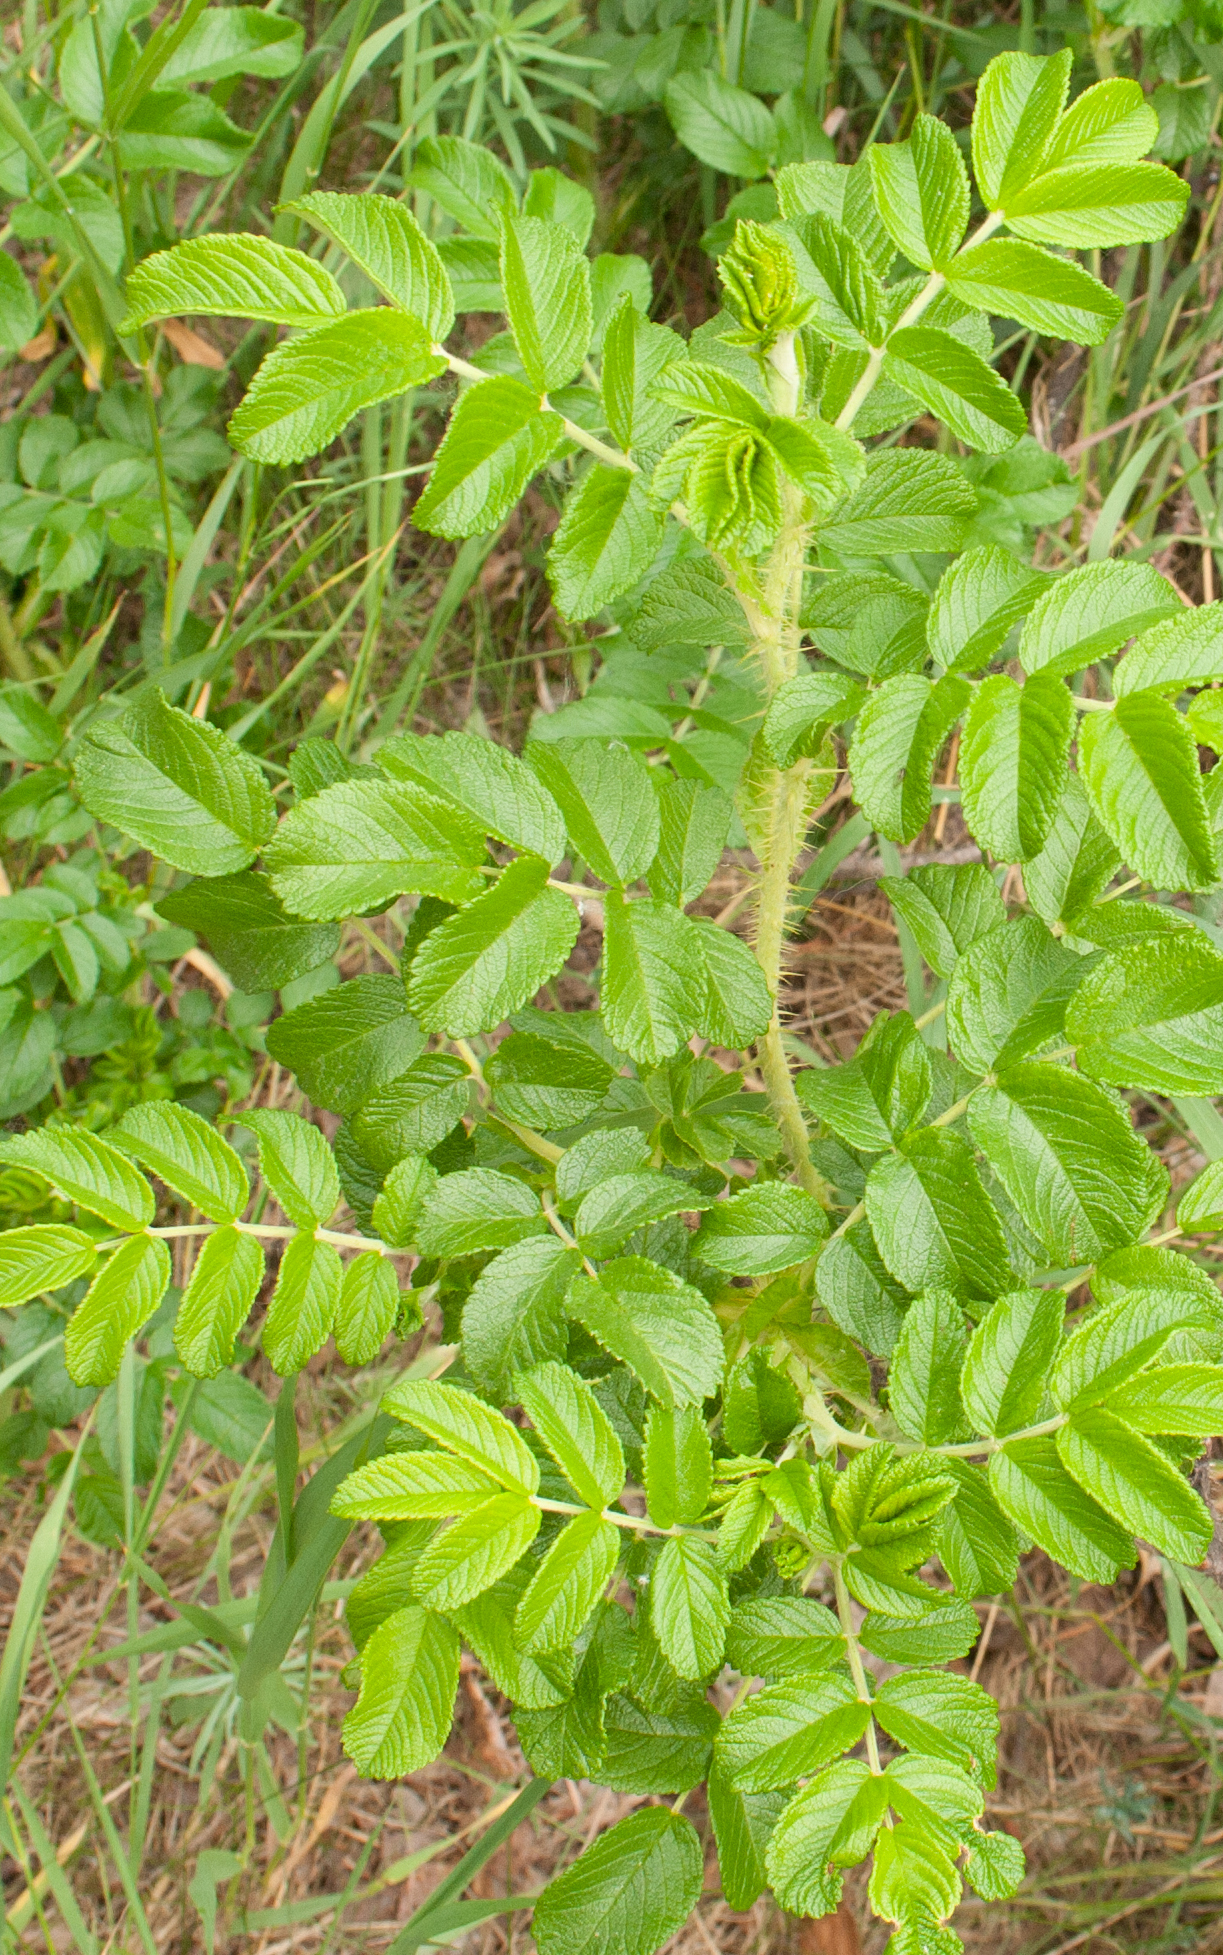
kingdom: Plantae
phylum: Tracheophyta
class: Magnoliopsida
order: Rosales
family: Rosaceae
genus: Rosa
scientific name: Rosa rugosa
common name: Japanese rose
